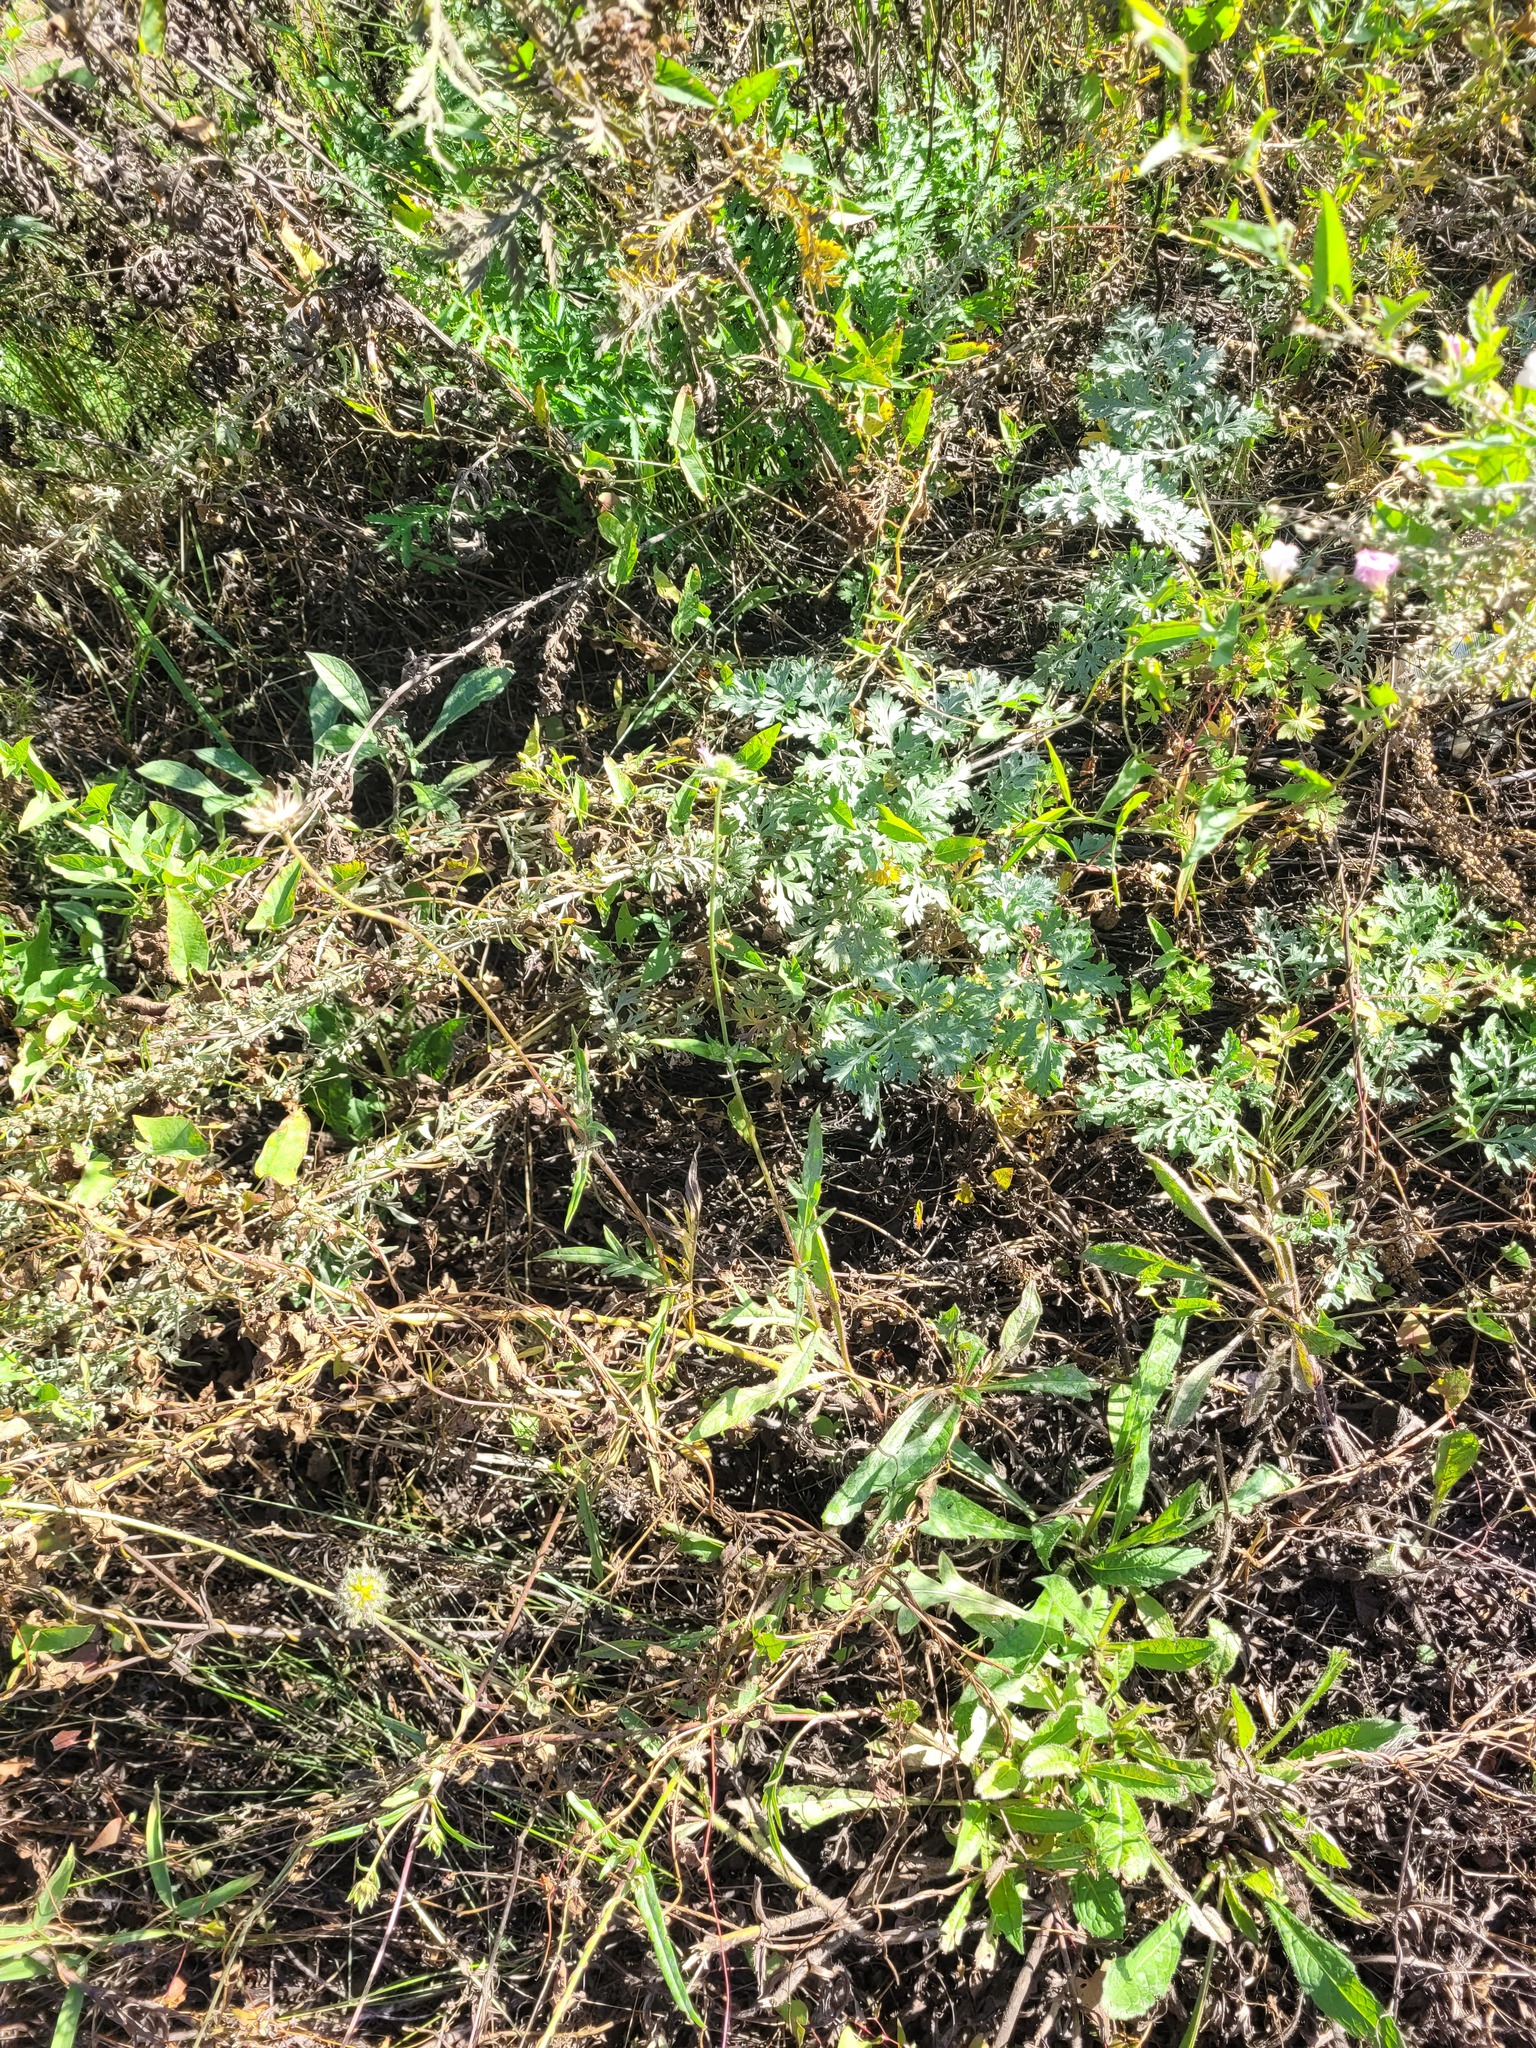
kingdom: Plantae
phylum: Tracheophyta
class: Magnoliopsida
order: Dipsacales
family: Caprifoliaceae
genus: Knautia
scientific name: Knautia arvensis
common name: Field scabiosa
